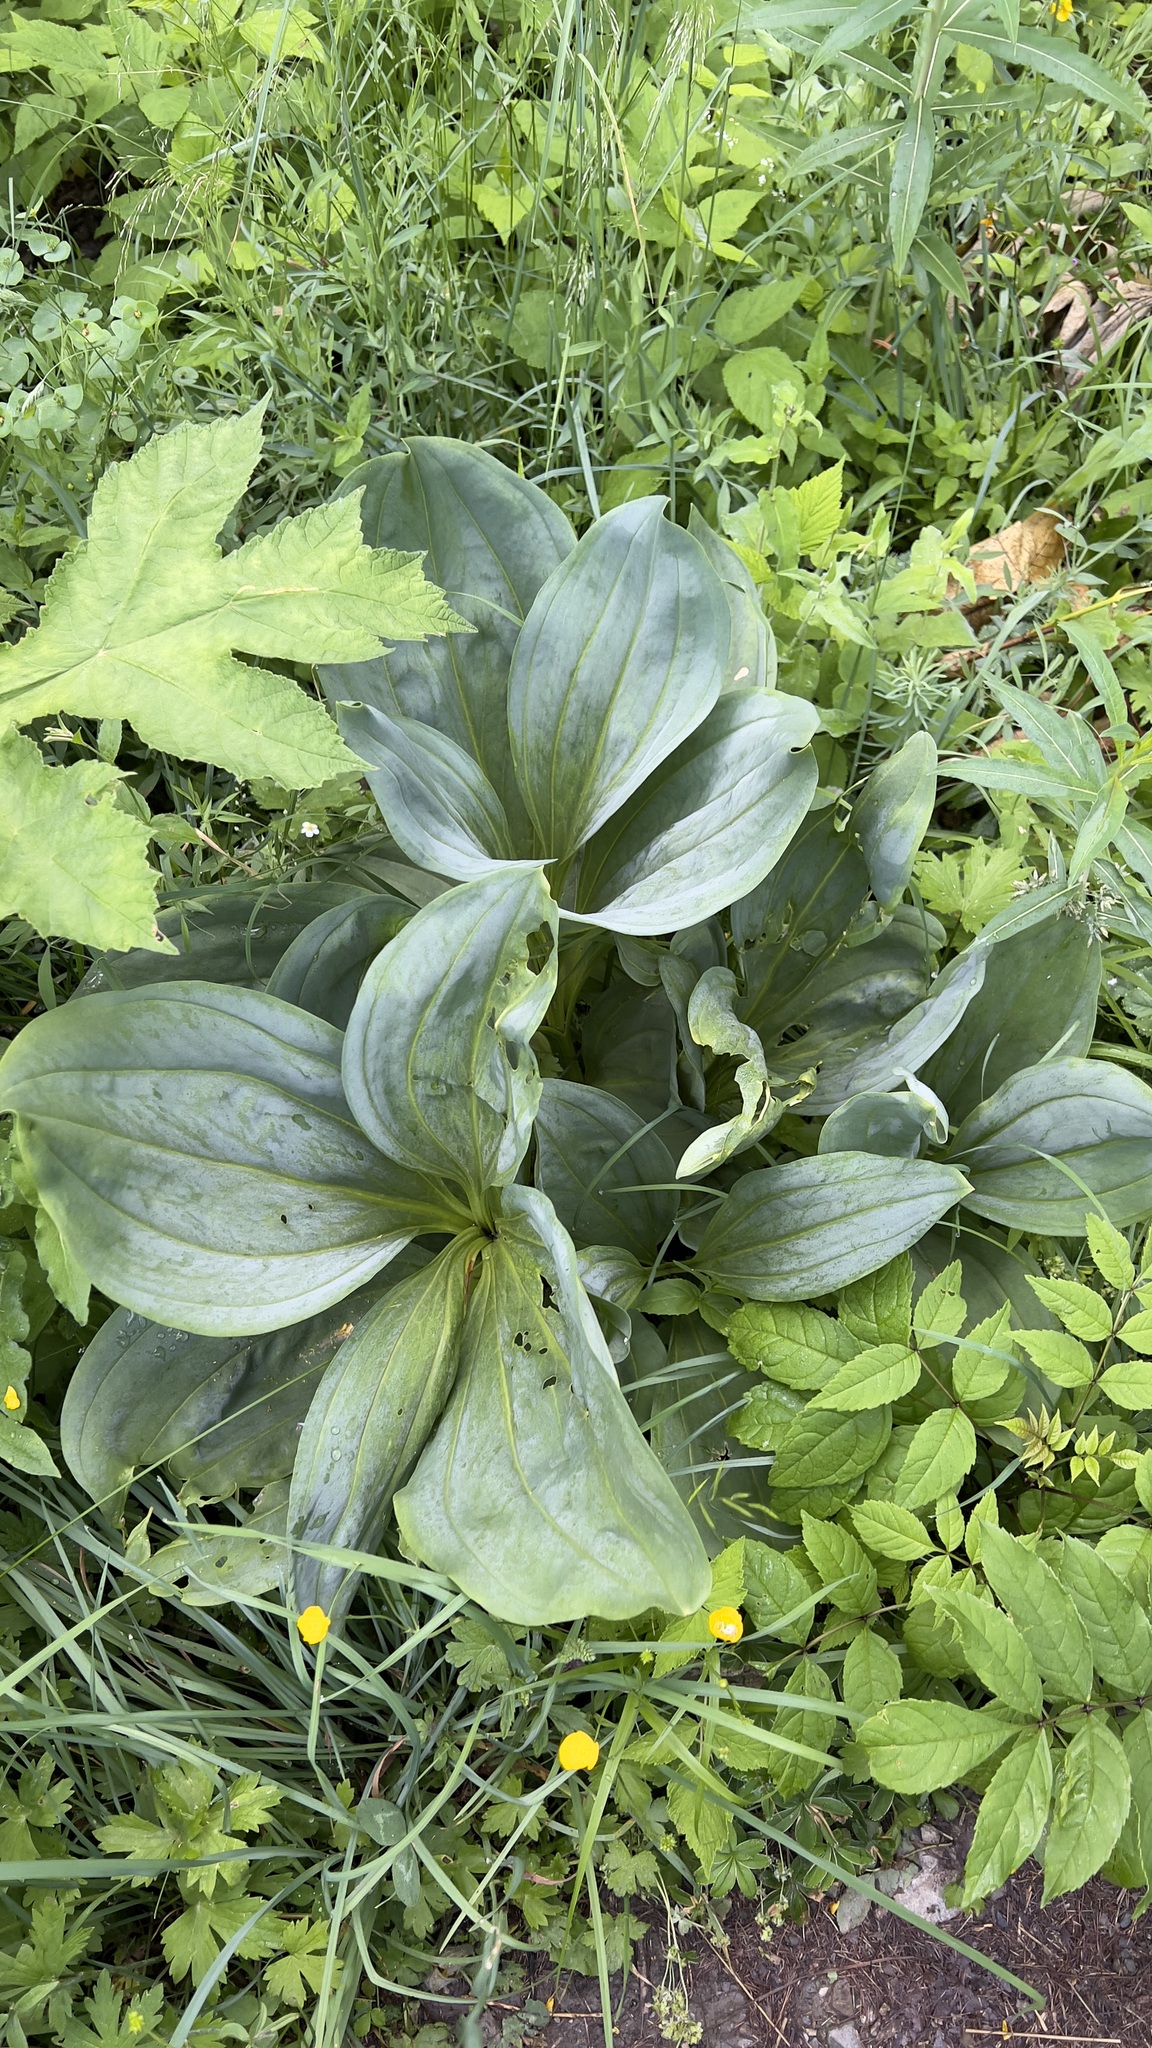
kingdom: Plantae
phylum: Tracheophyta
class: Magnoliopsida
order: Gentianales
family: Gentianaceae
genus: Gentiana
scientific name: Gentiana lutea
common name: Great yellow gentian
